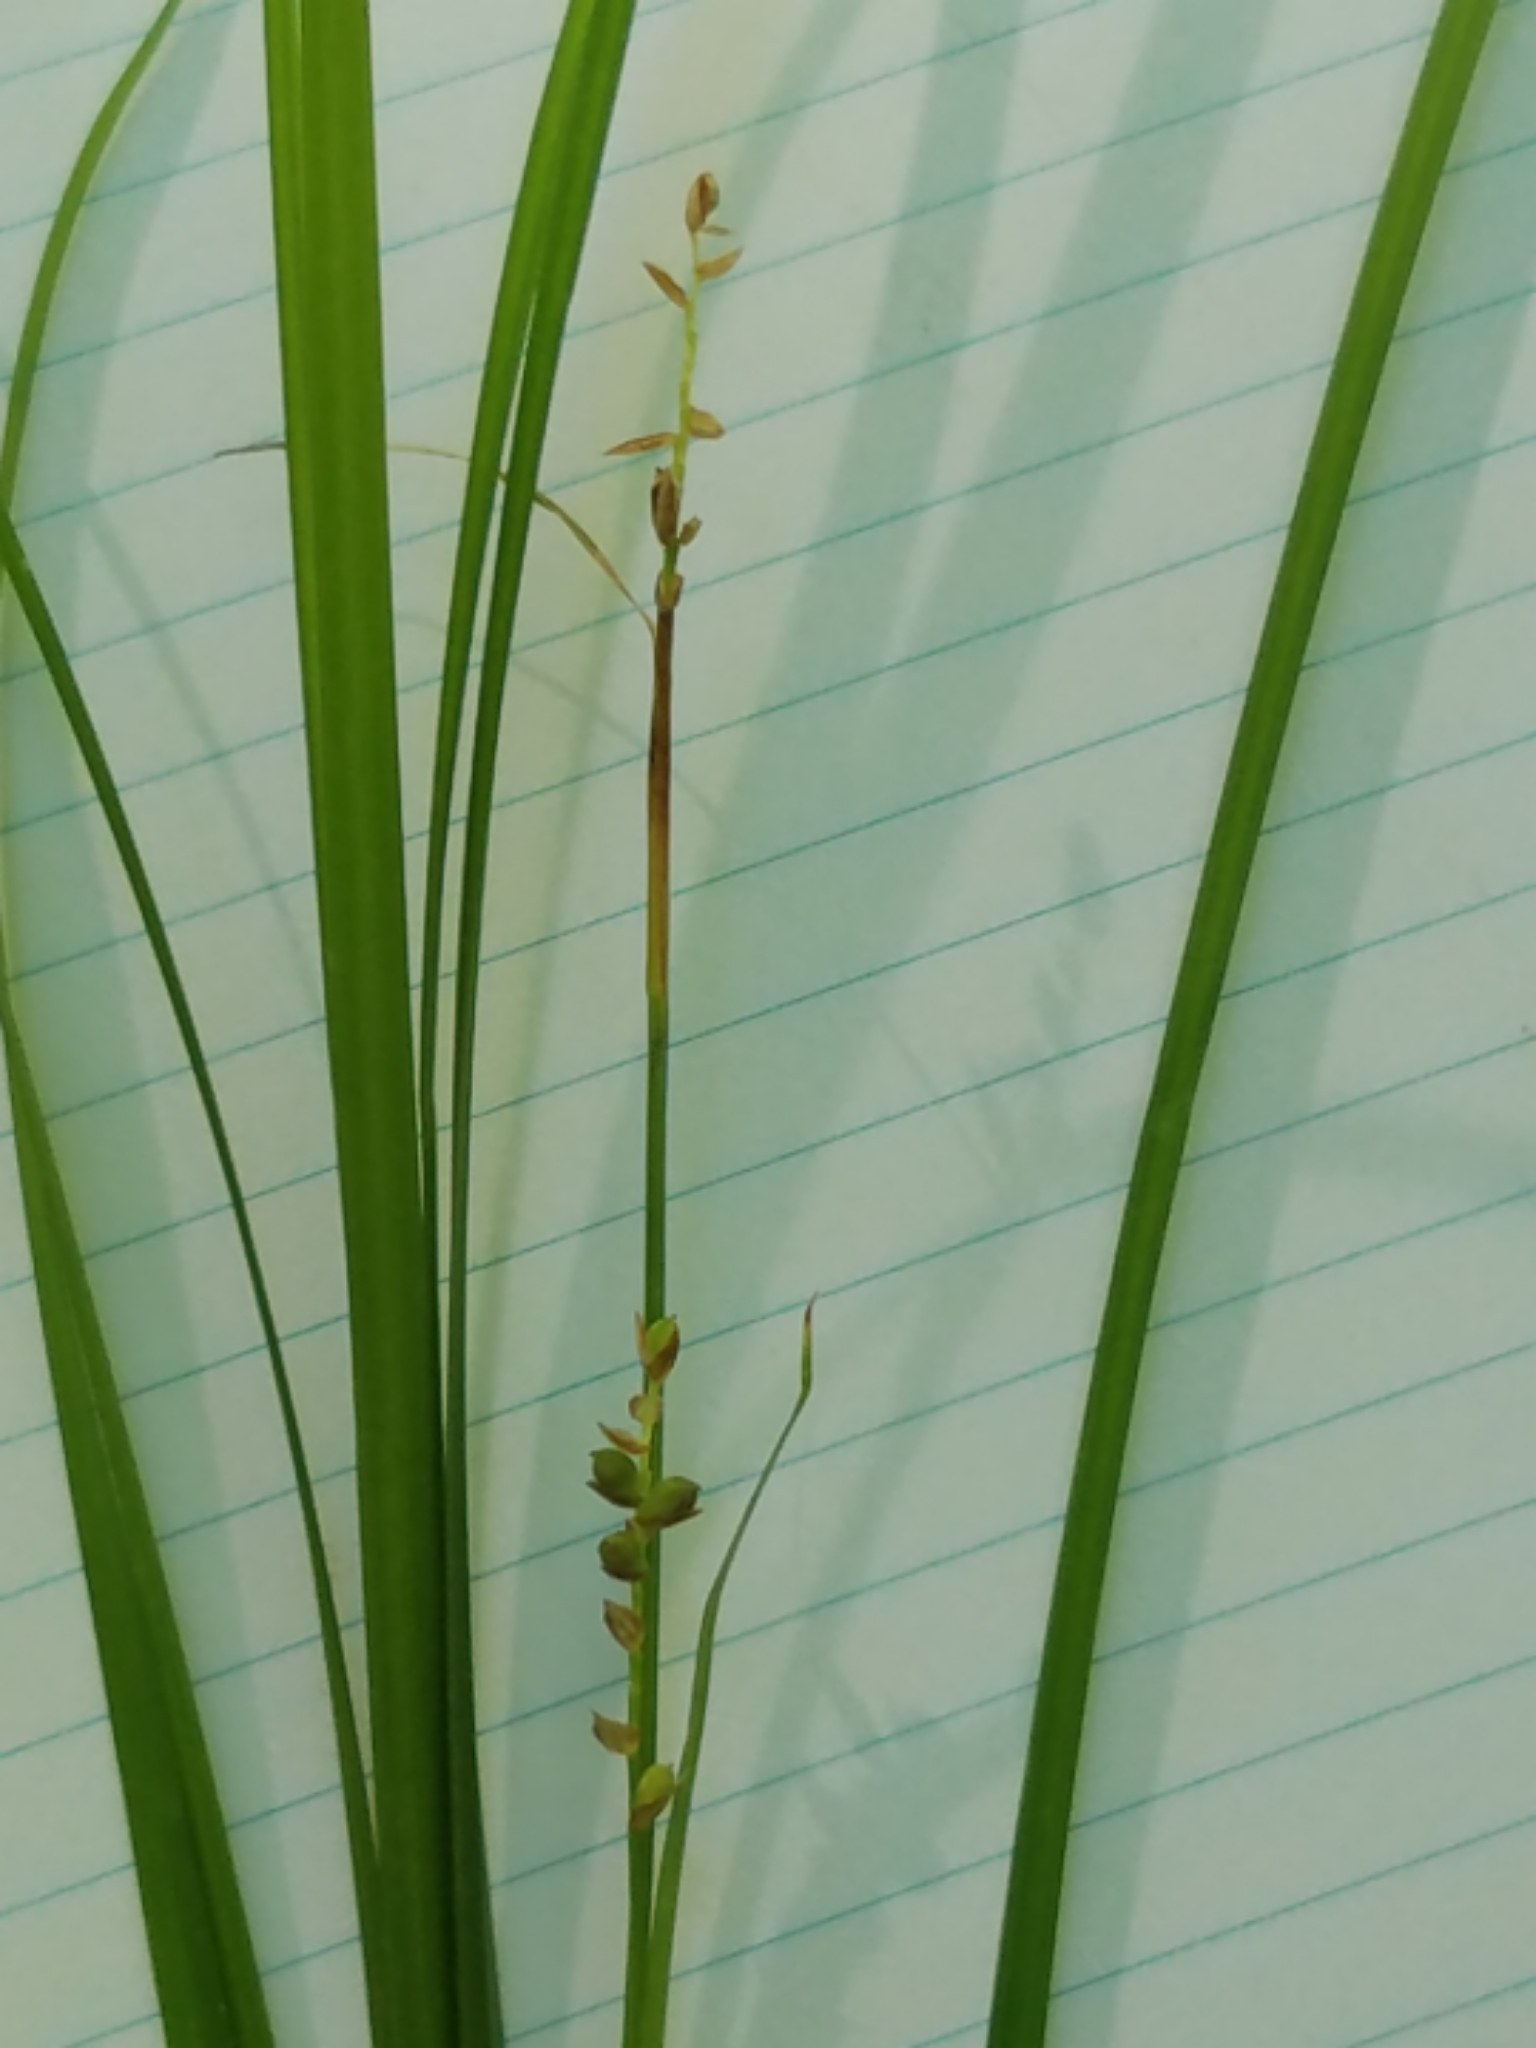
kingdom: Plantae
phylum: Tracheophyta
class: Liliopsida
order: Poales
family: Cyperaceae
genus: Carex
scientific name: Carex woodii
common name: Wood's sedge
